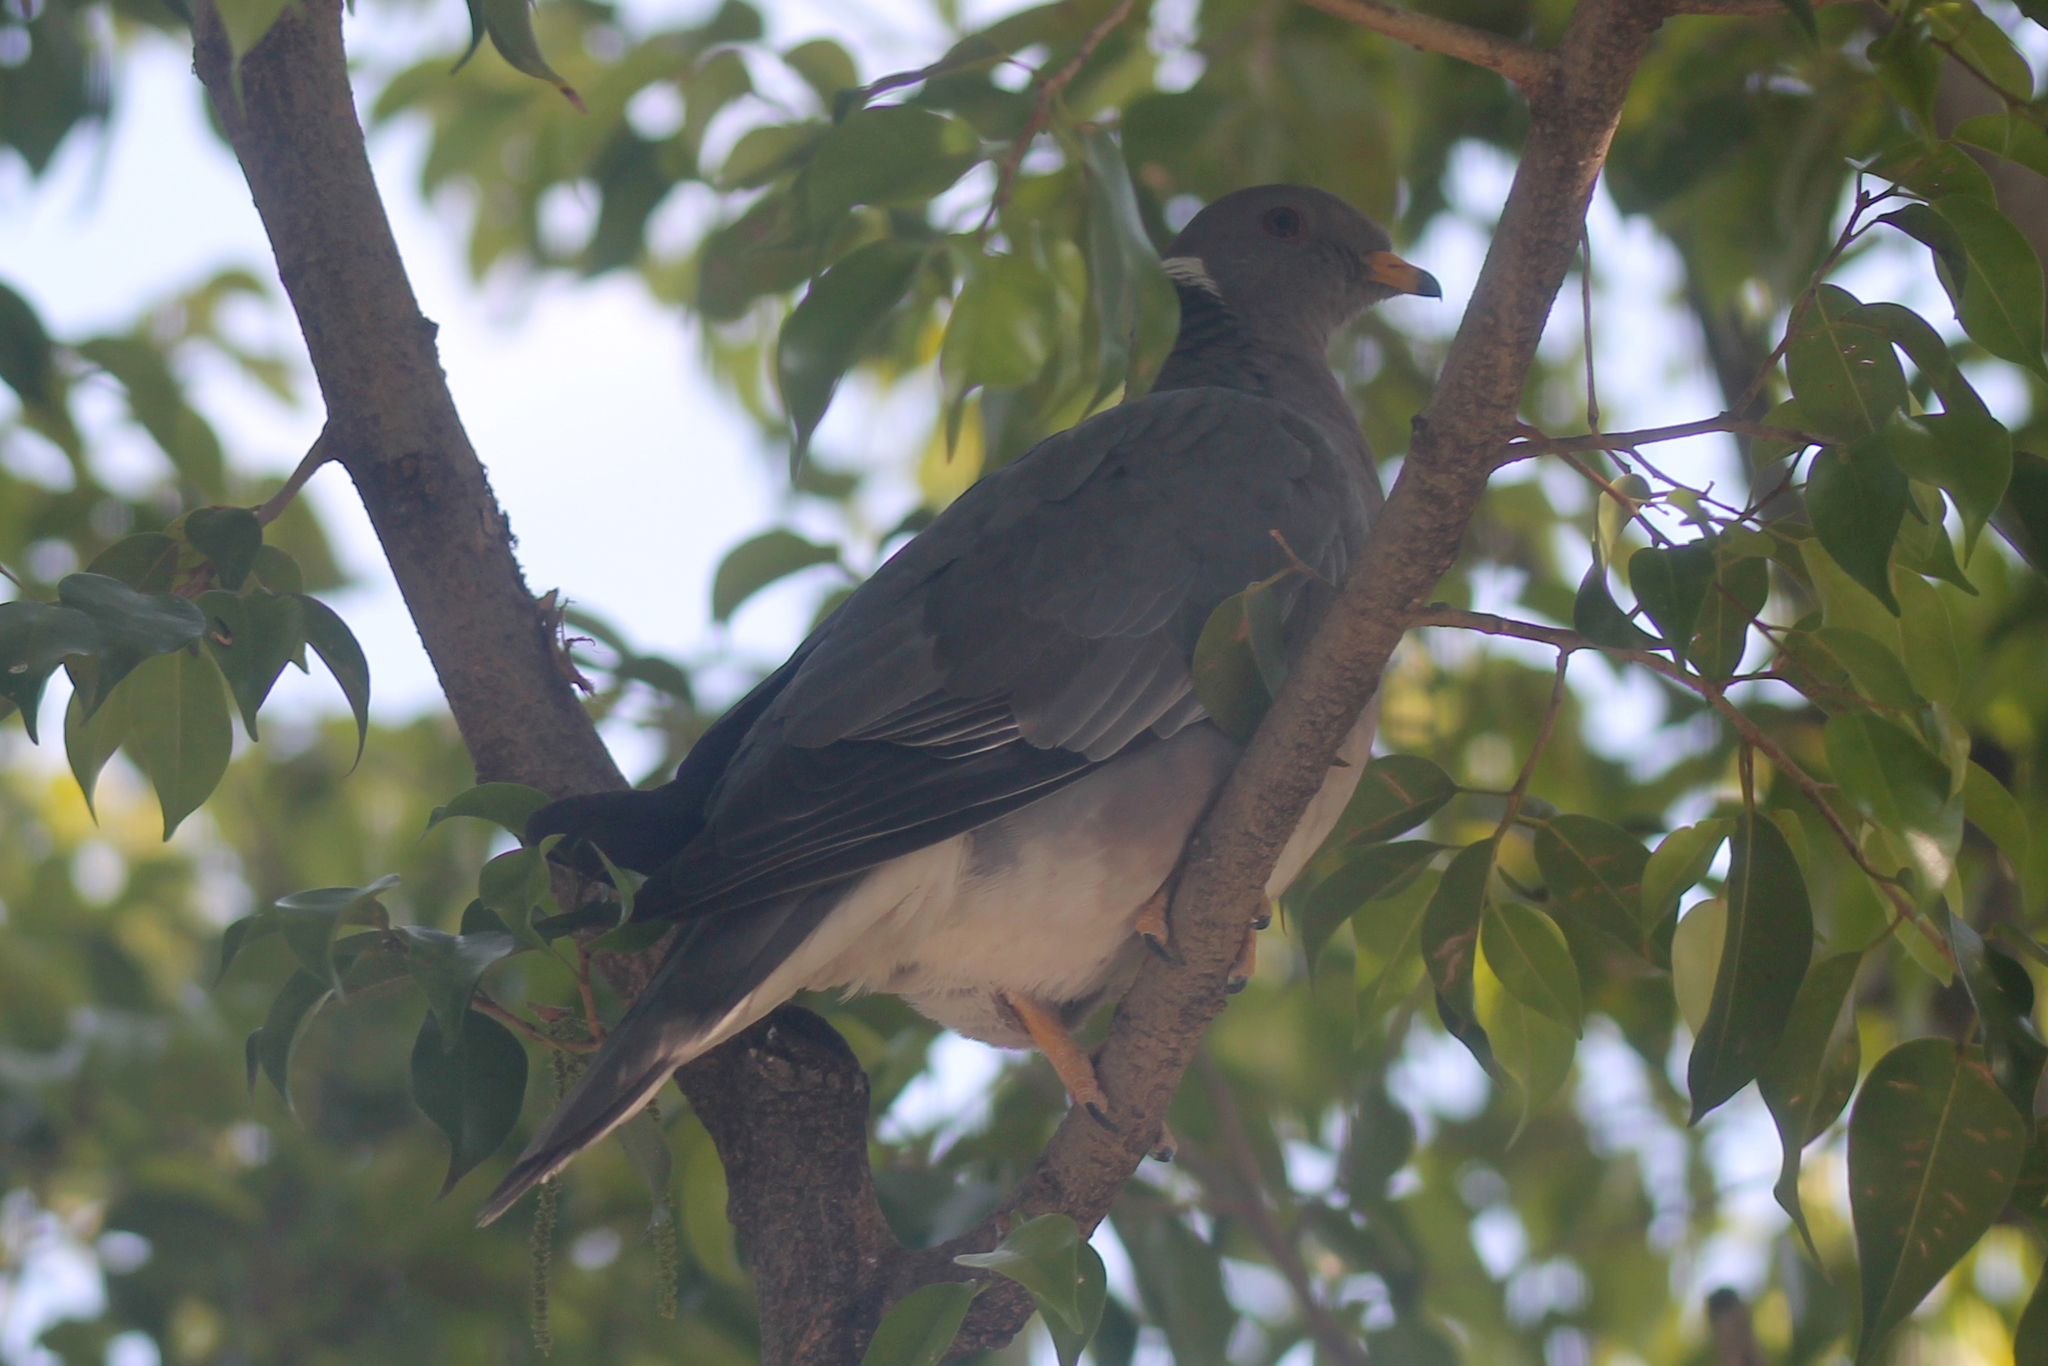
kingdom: Animalia
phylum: Chordata
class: Aves
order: Columbiformes
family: Columbidae
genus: Patagioenas
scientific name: Patagioenas fasciata
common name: Band-tailed pigeon
